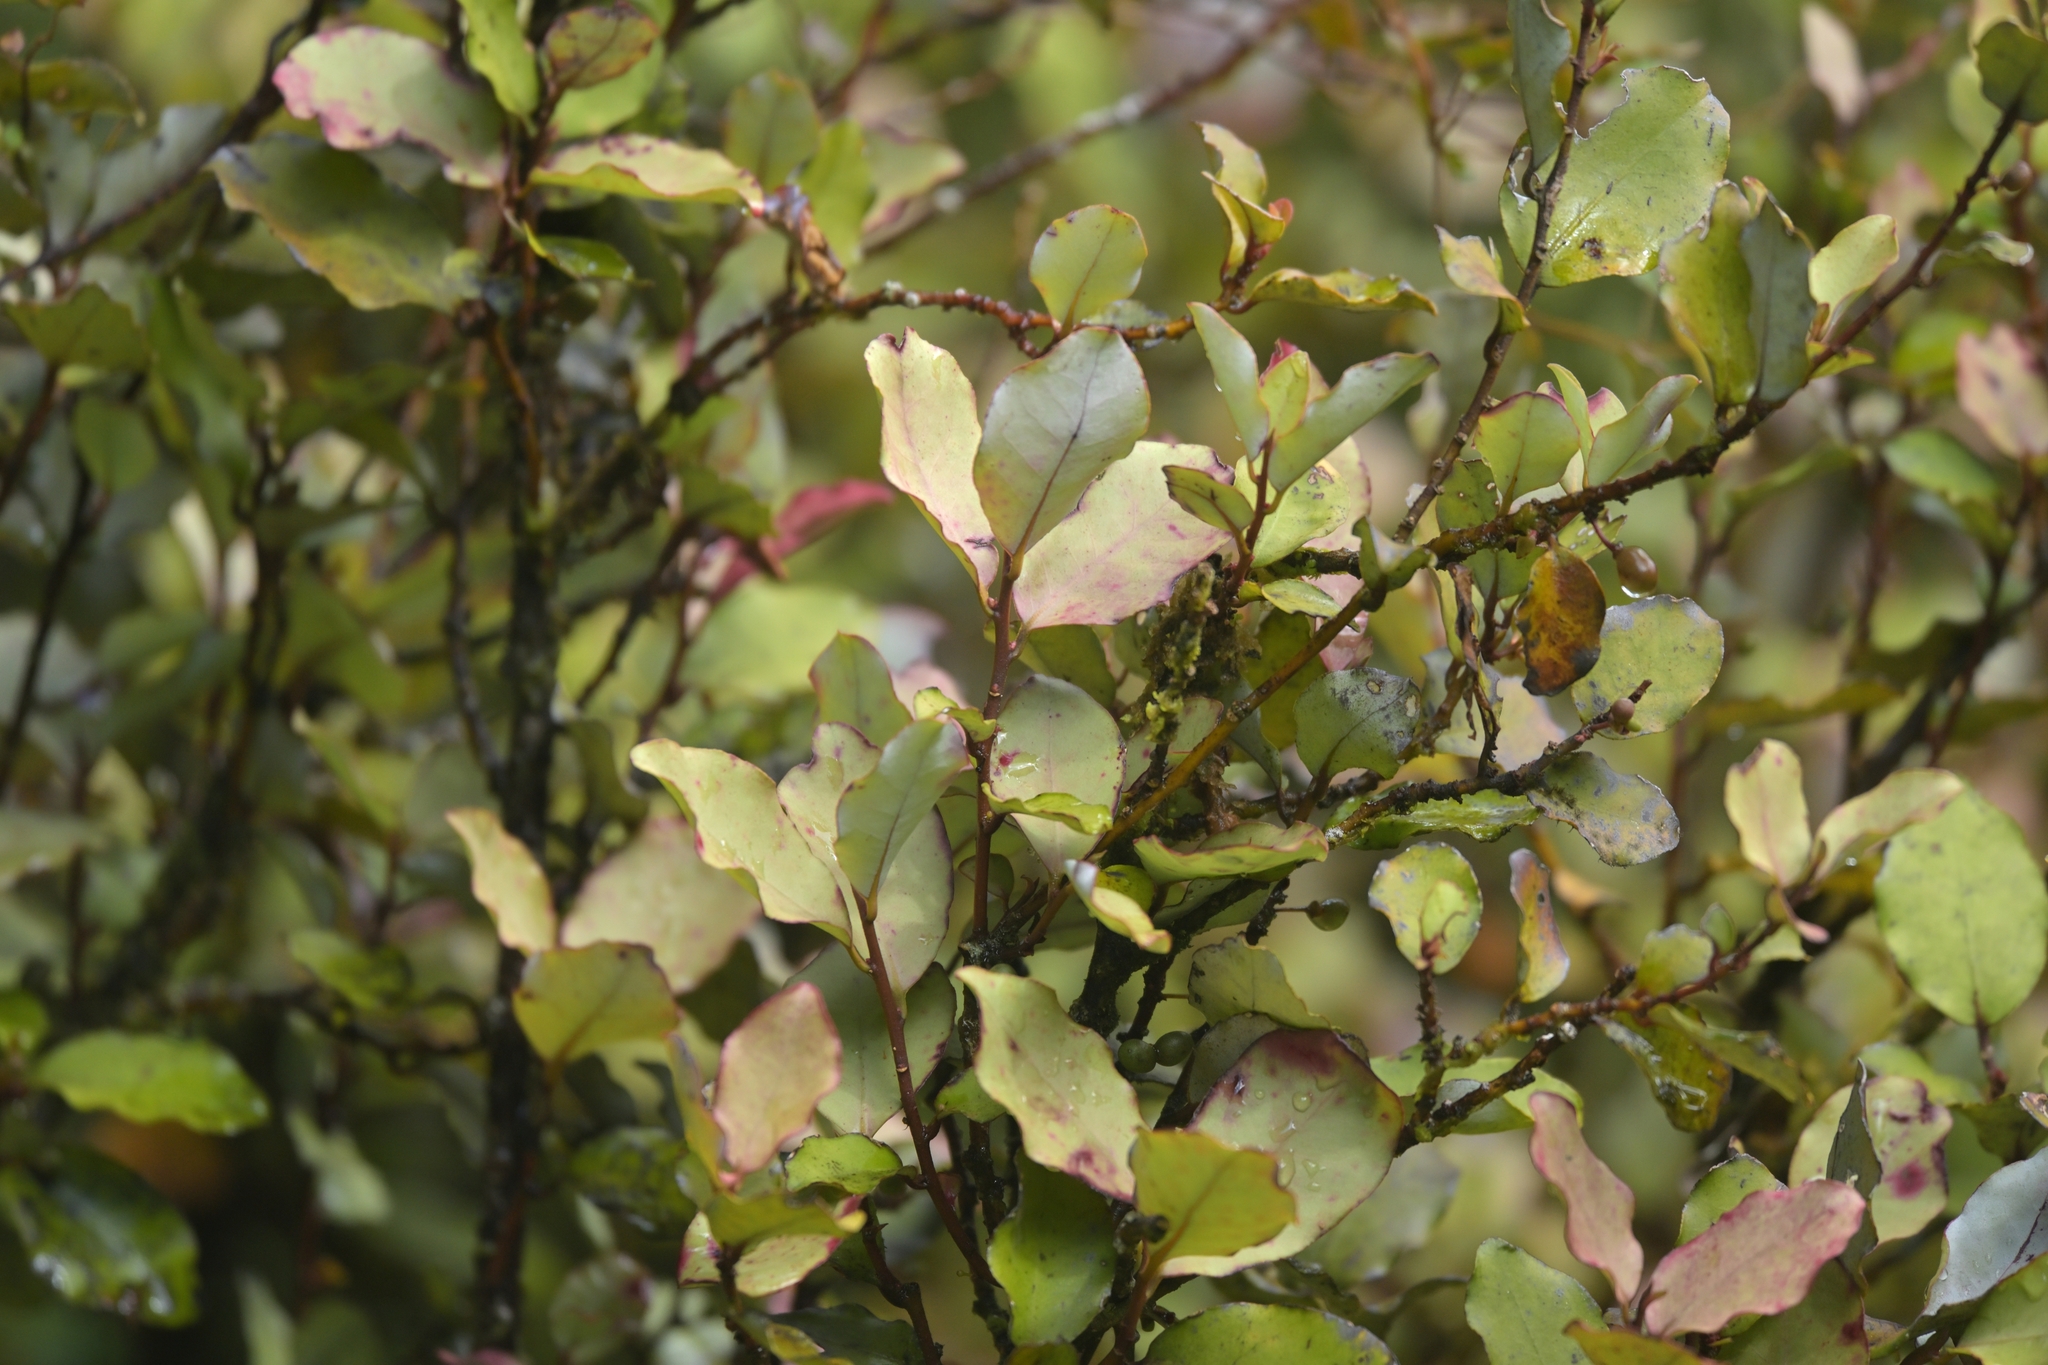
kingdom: Plantae
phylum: Tracheophyta
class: Magnoliopsida
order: Canellales
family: Winteraceae
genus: Pseudowintera
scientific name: Pseudowintera colorata
